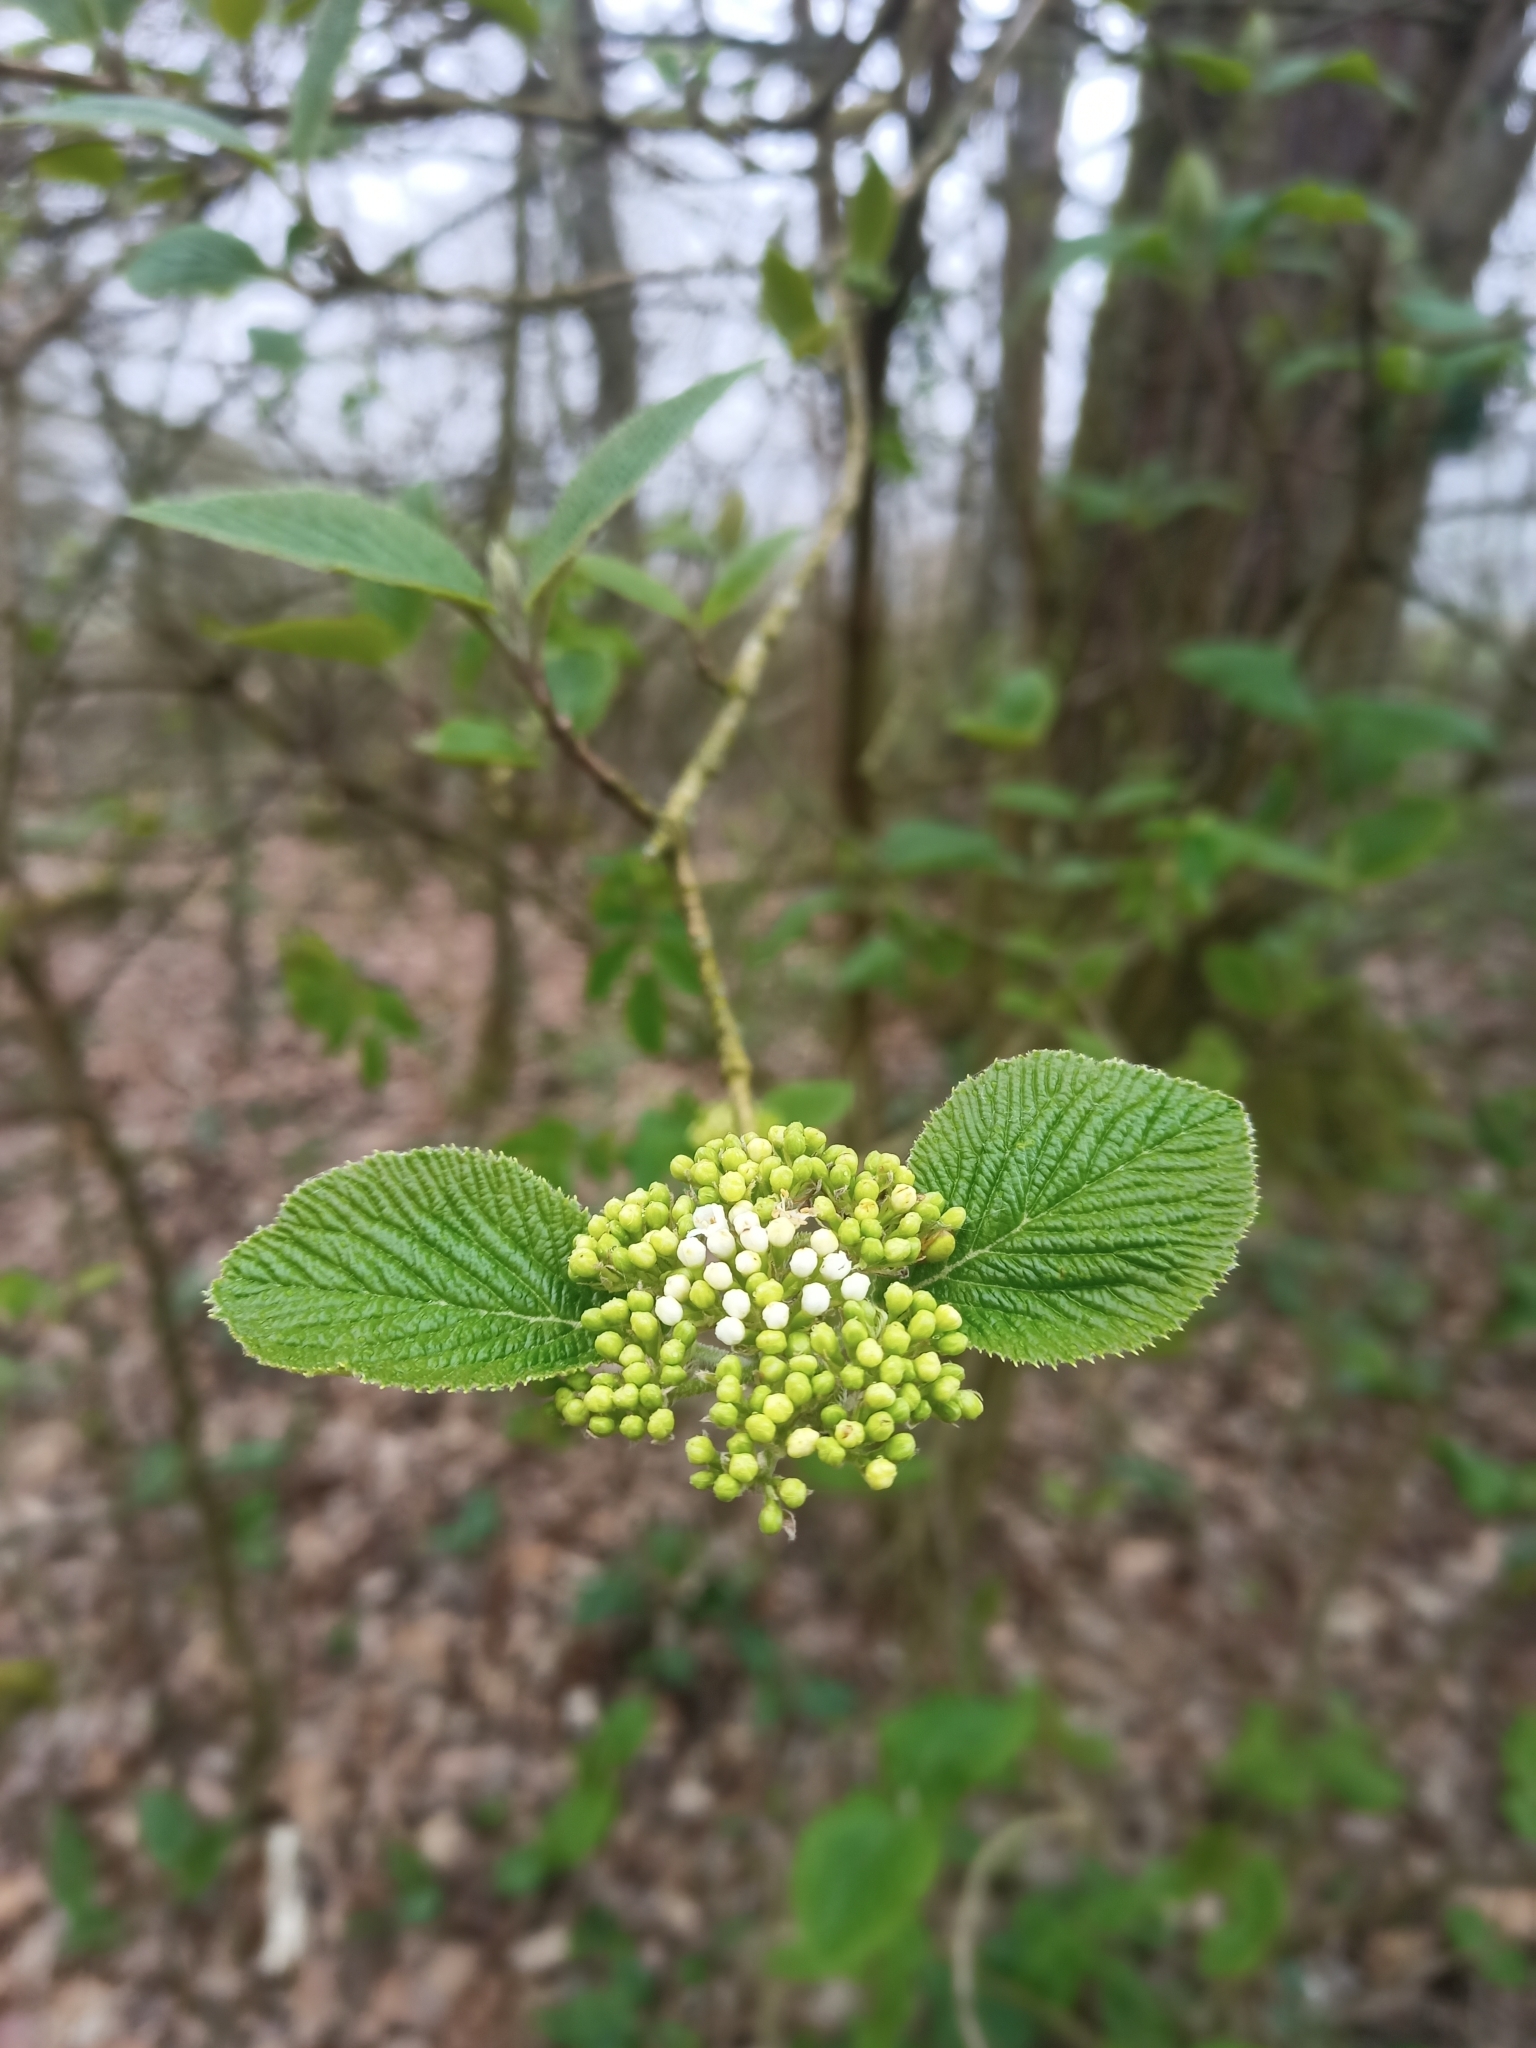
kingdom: Plantae
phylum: Tracheophyta
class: Magnoliopsida
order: Dipsacales
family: Viburnaceae
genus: Viburnum
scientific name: Viburnum lantana
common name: Wayfaring tree
